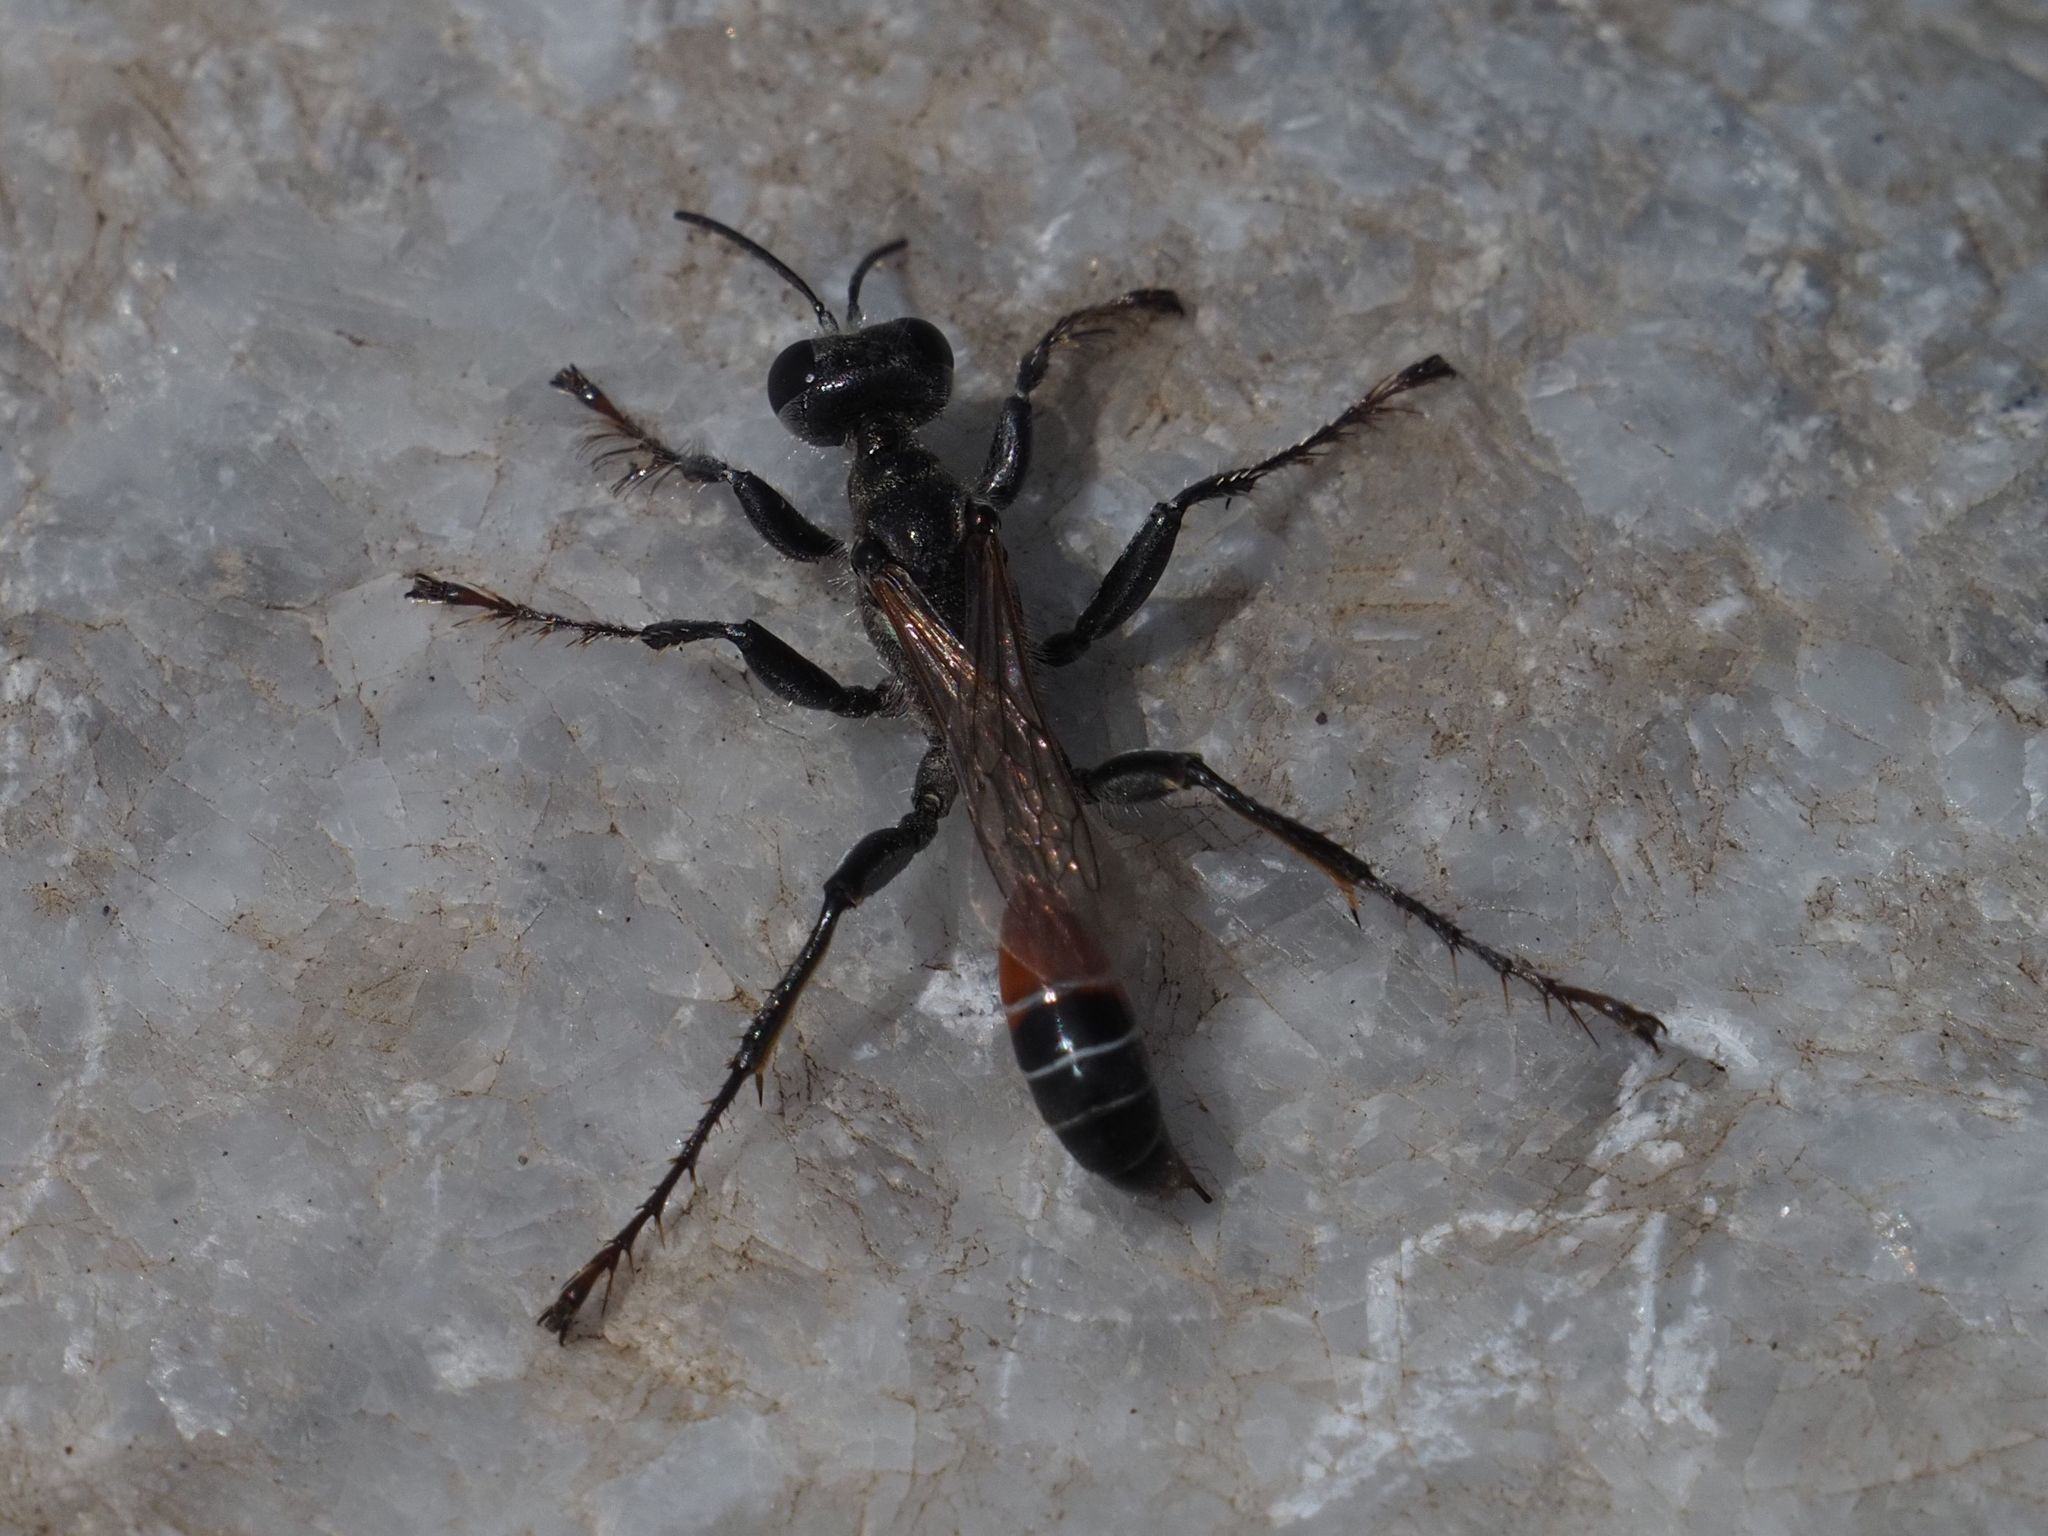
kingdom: Animalia
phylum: Arthropoda
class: Insecta
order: Hymenoptera
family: Sphecidae
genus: Prionyx
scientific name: Prionyx kirbii
